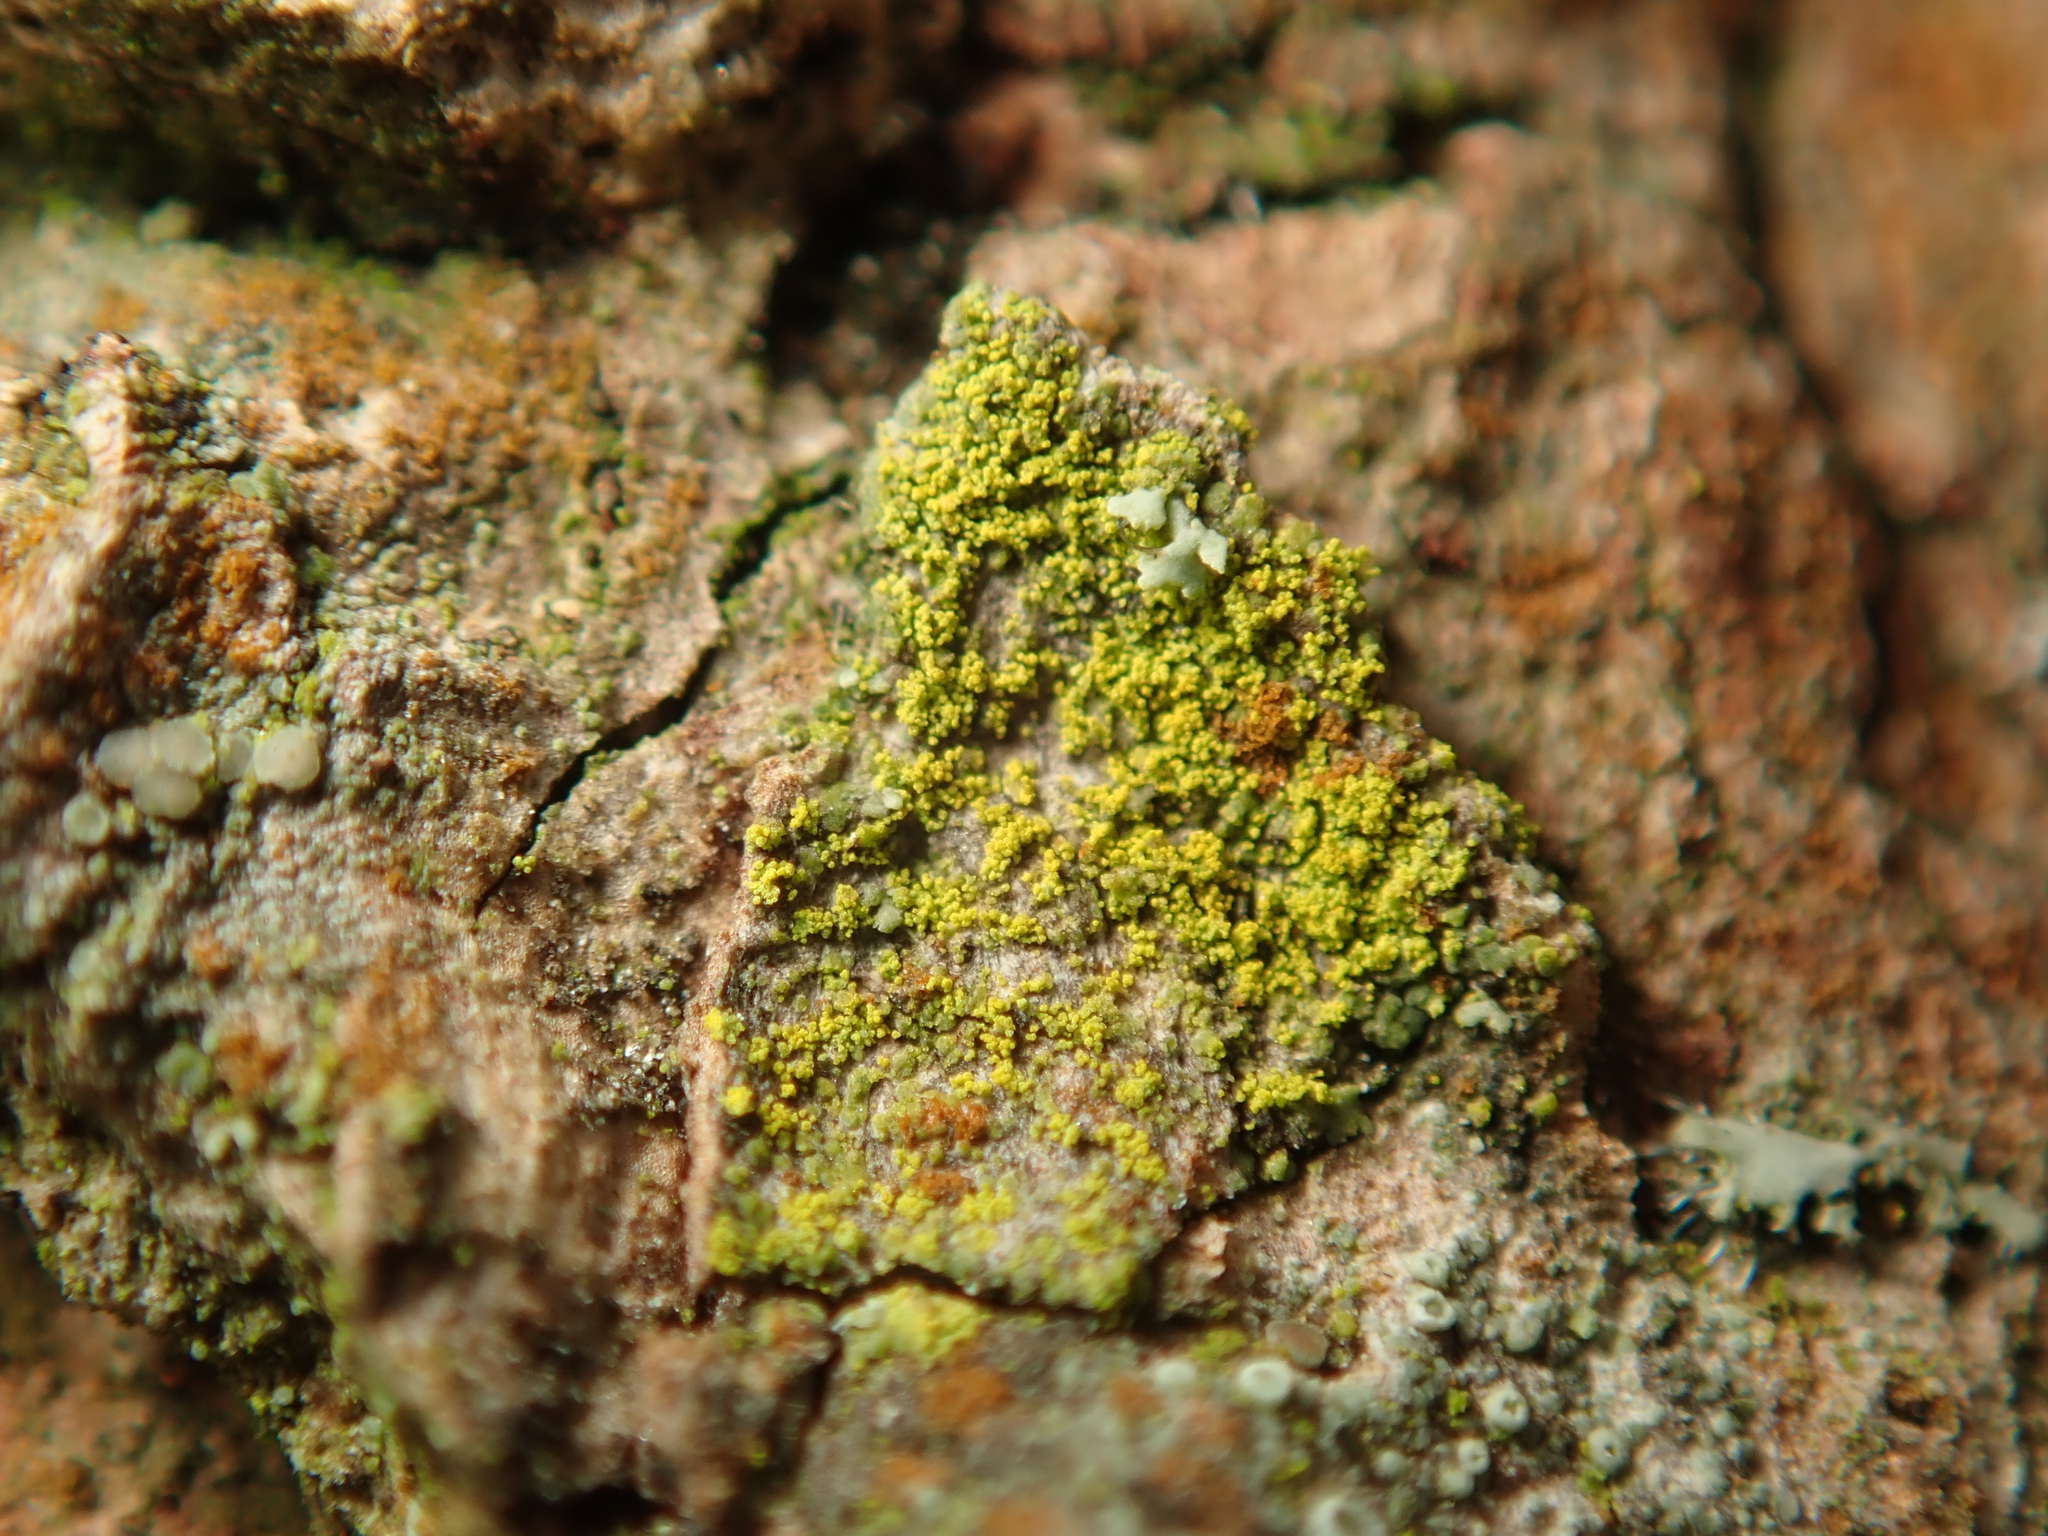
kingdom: Fungi
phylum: Ascomycota
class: Candelariomycetes
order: Candelariales
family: Candelariaceae
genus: Candelariella
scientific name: Candelariella efflorescens
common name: Powdery goldspeck
